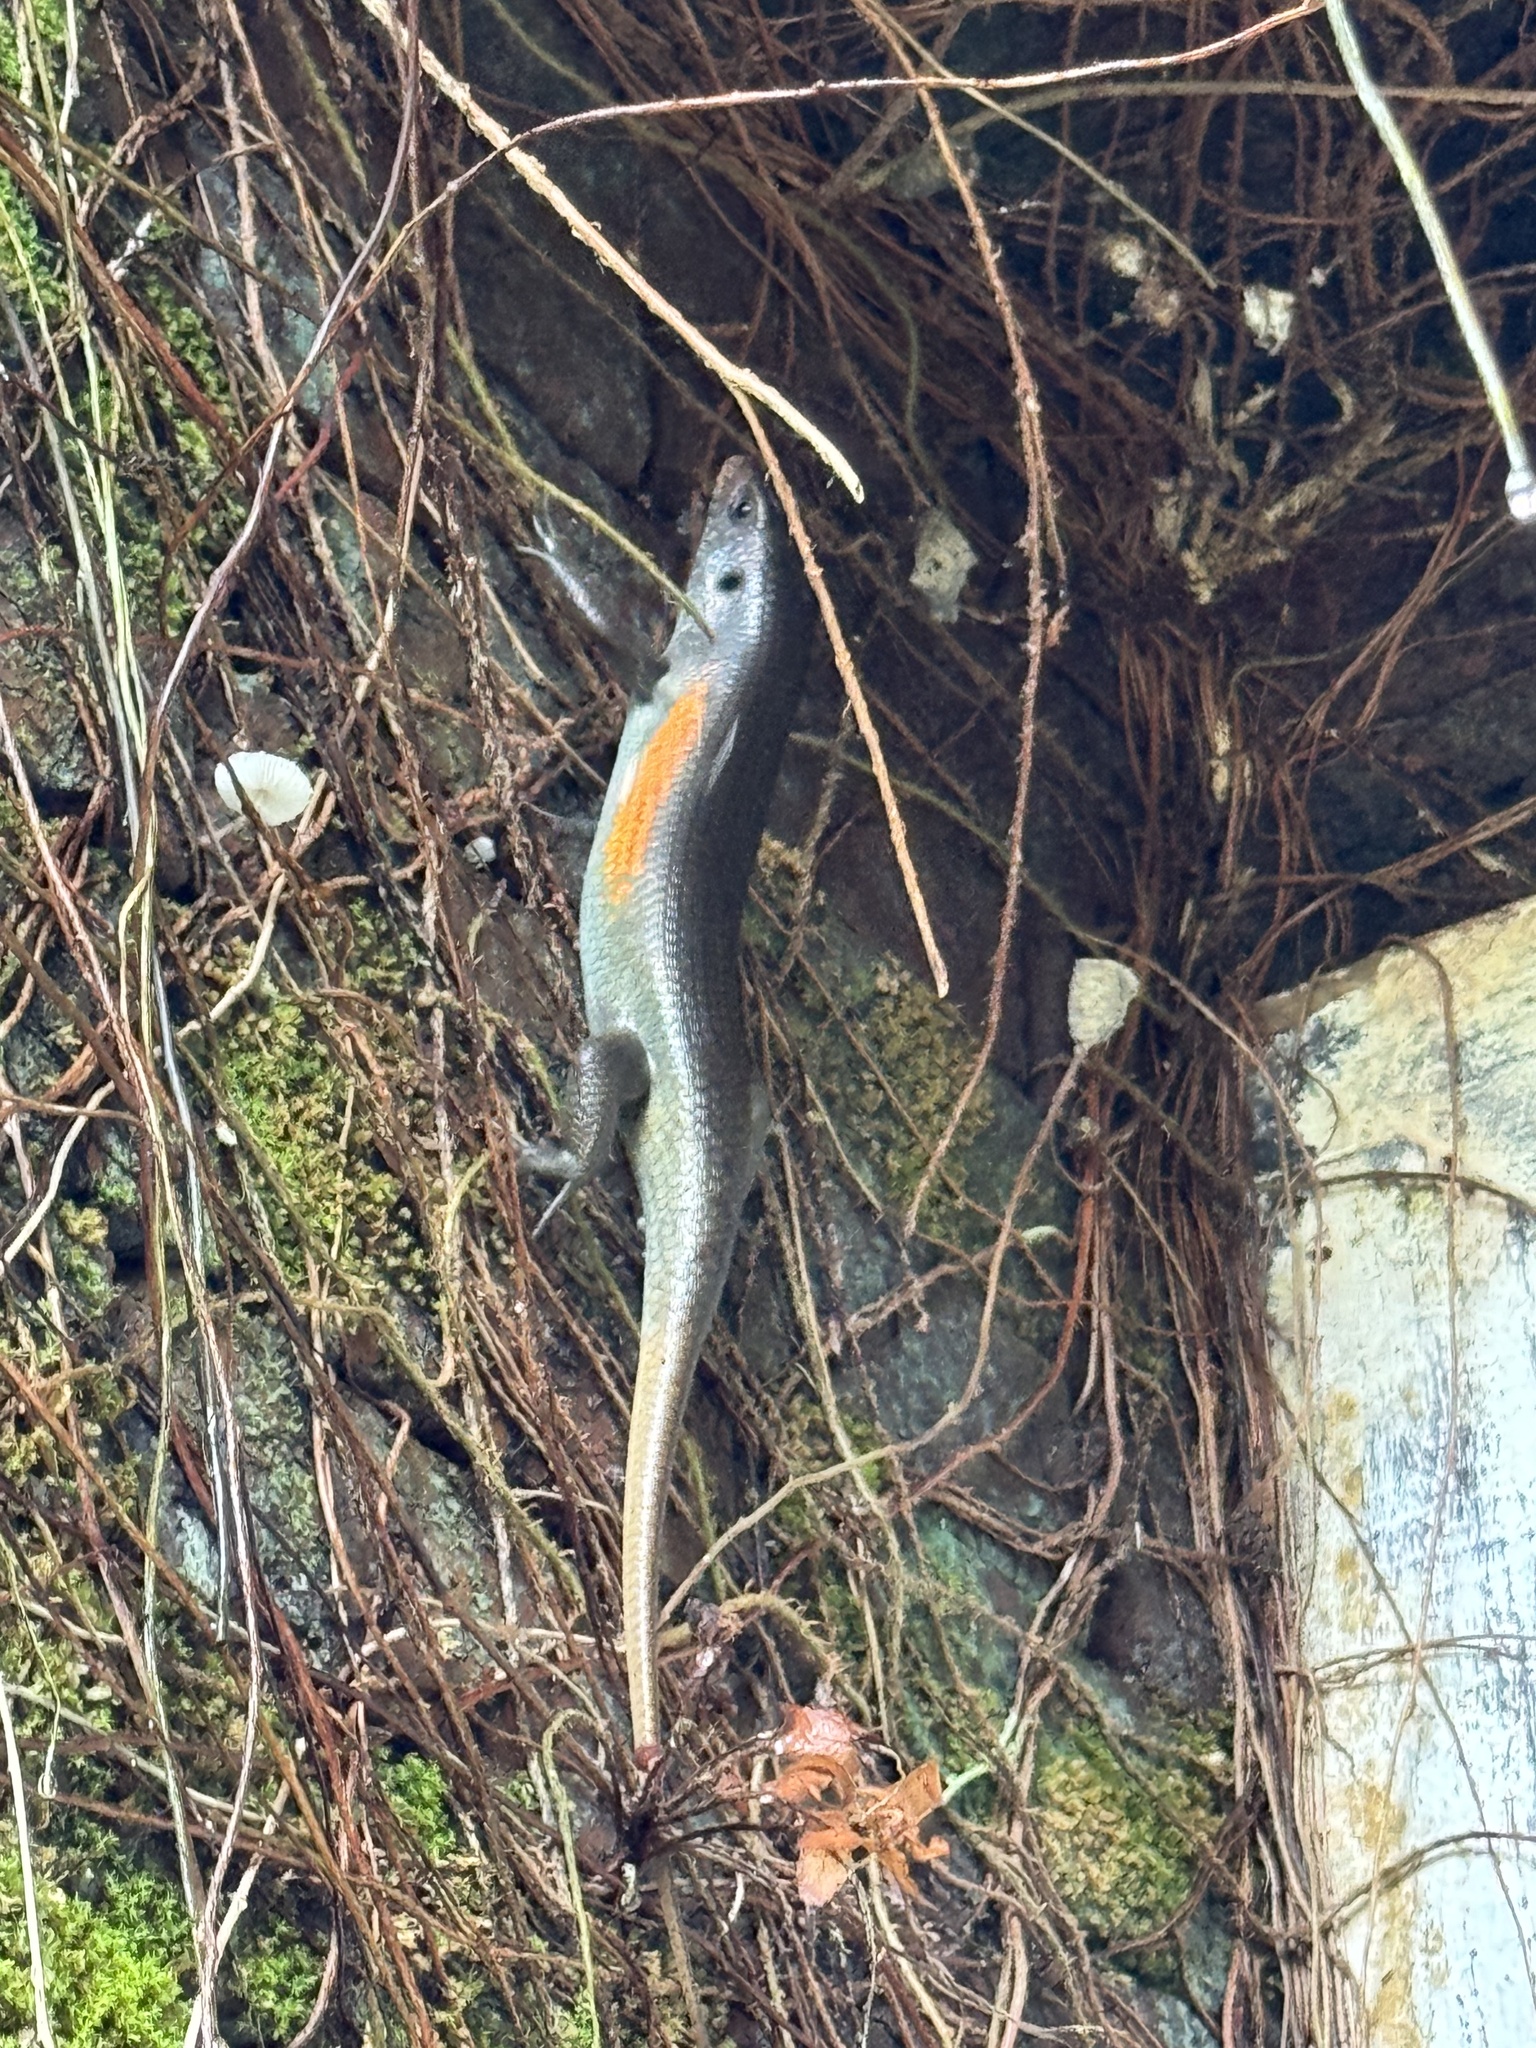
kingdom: Animalia
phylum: Chordata
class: Squamata
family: Scincidae
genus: Eutropis
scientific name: Eutropis multifasciata
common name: Common mabuya
